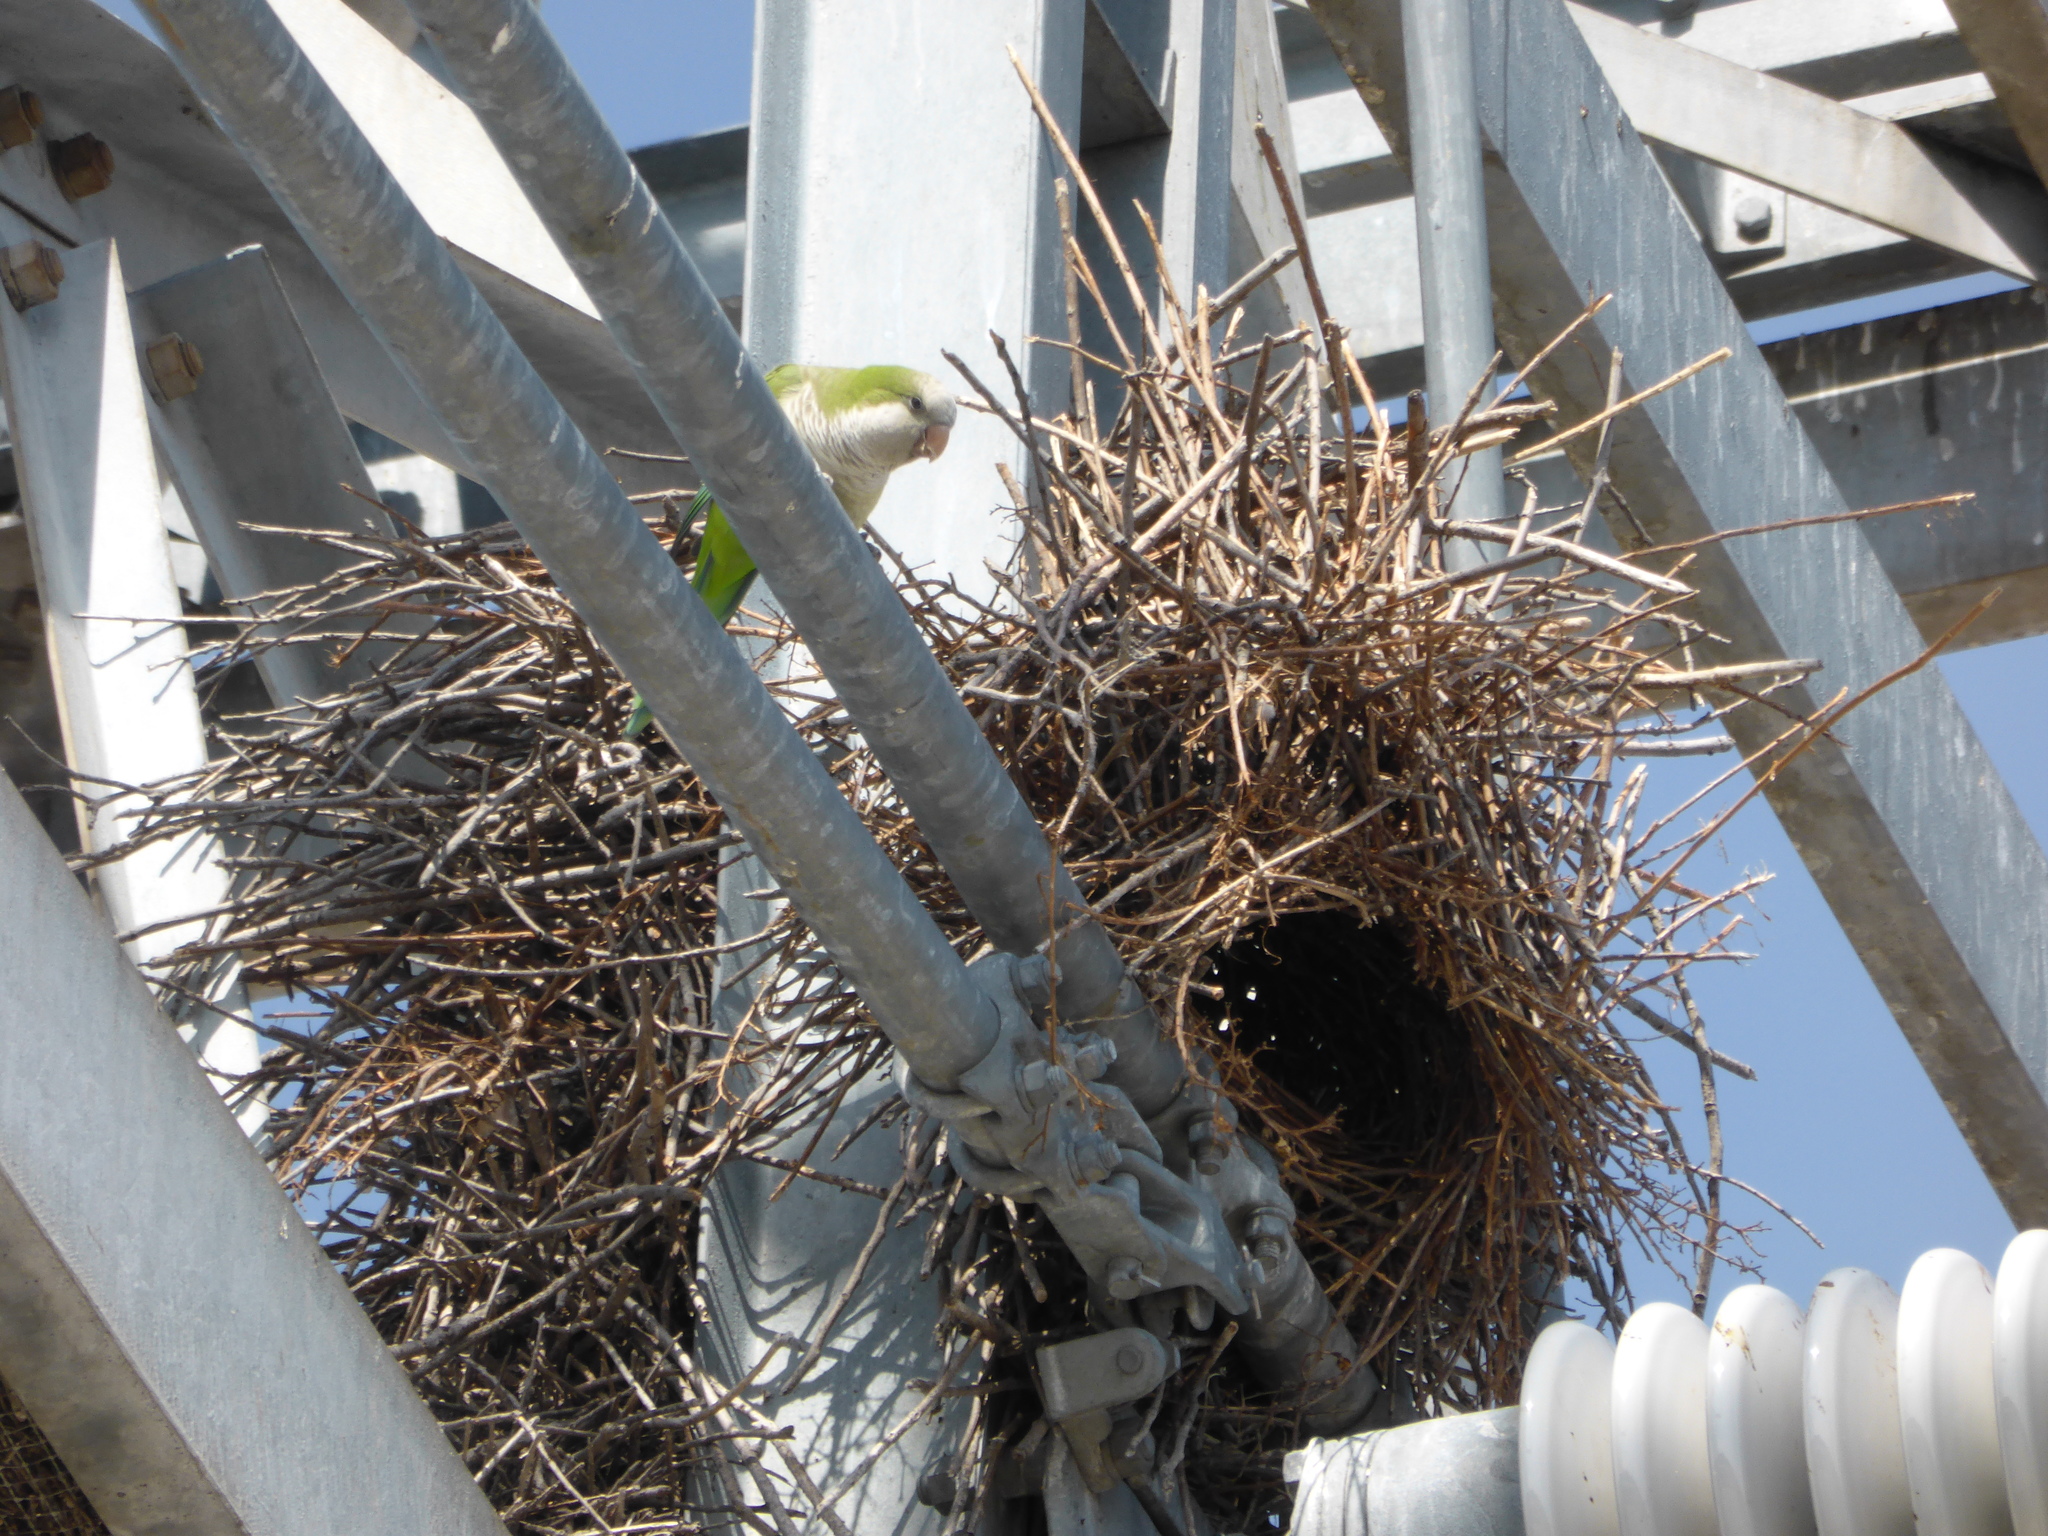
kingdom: Animalia
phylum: Chordata
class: Aves
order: Psittaciformes
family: Psittacidae
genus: Myiopsitta
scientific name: Myiopsitta monachus
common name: Monk parakeet
